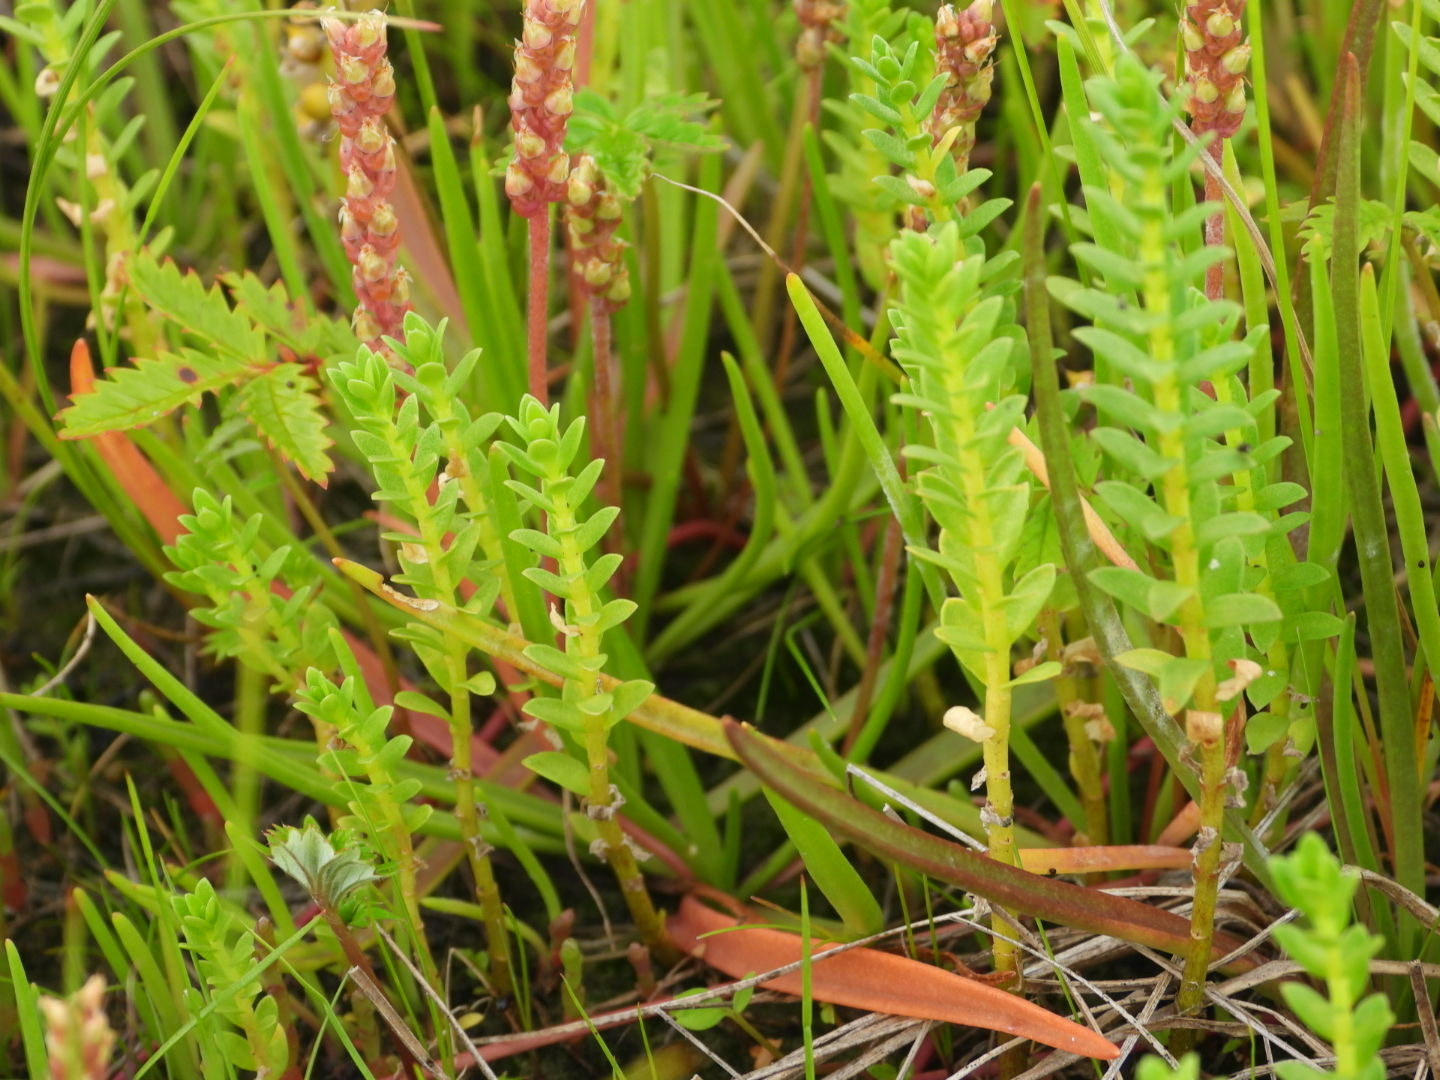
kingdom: Plantae
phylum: Tracheophyta
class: Magnoliopsida
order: Ericales
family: Primulaceae
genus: Lysimachia
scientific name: Lysimachia maritima
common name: Sea milkwort
